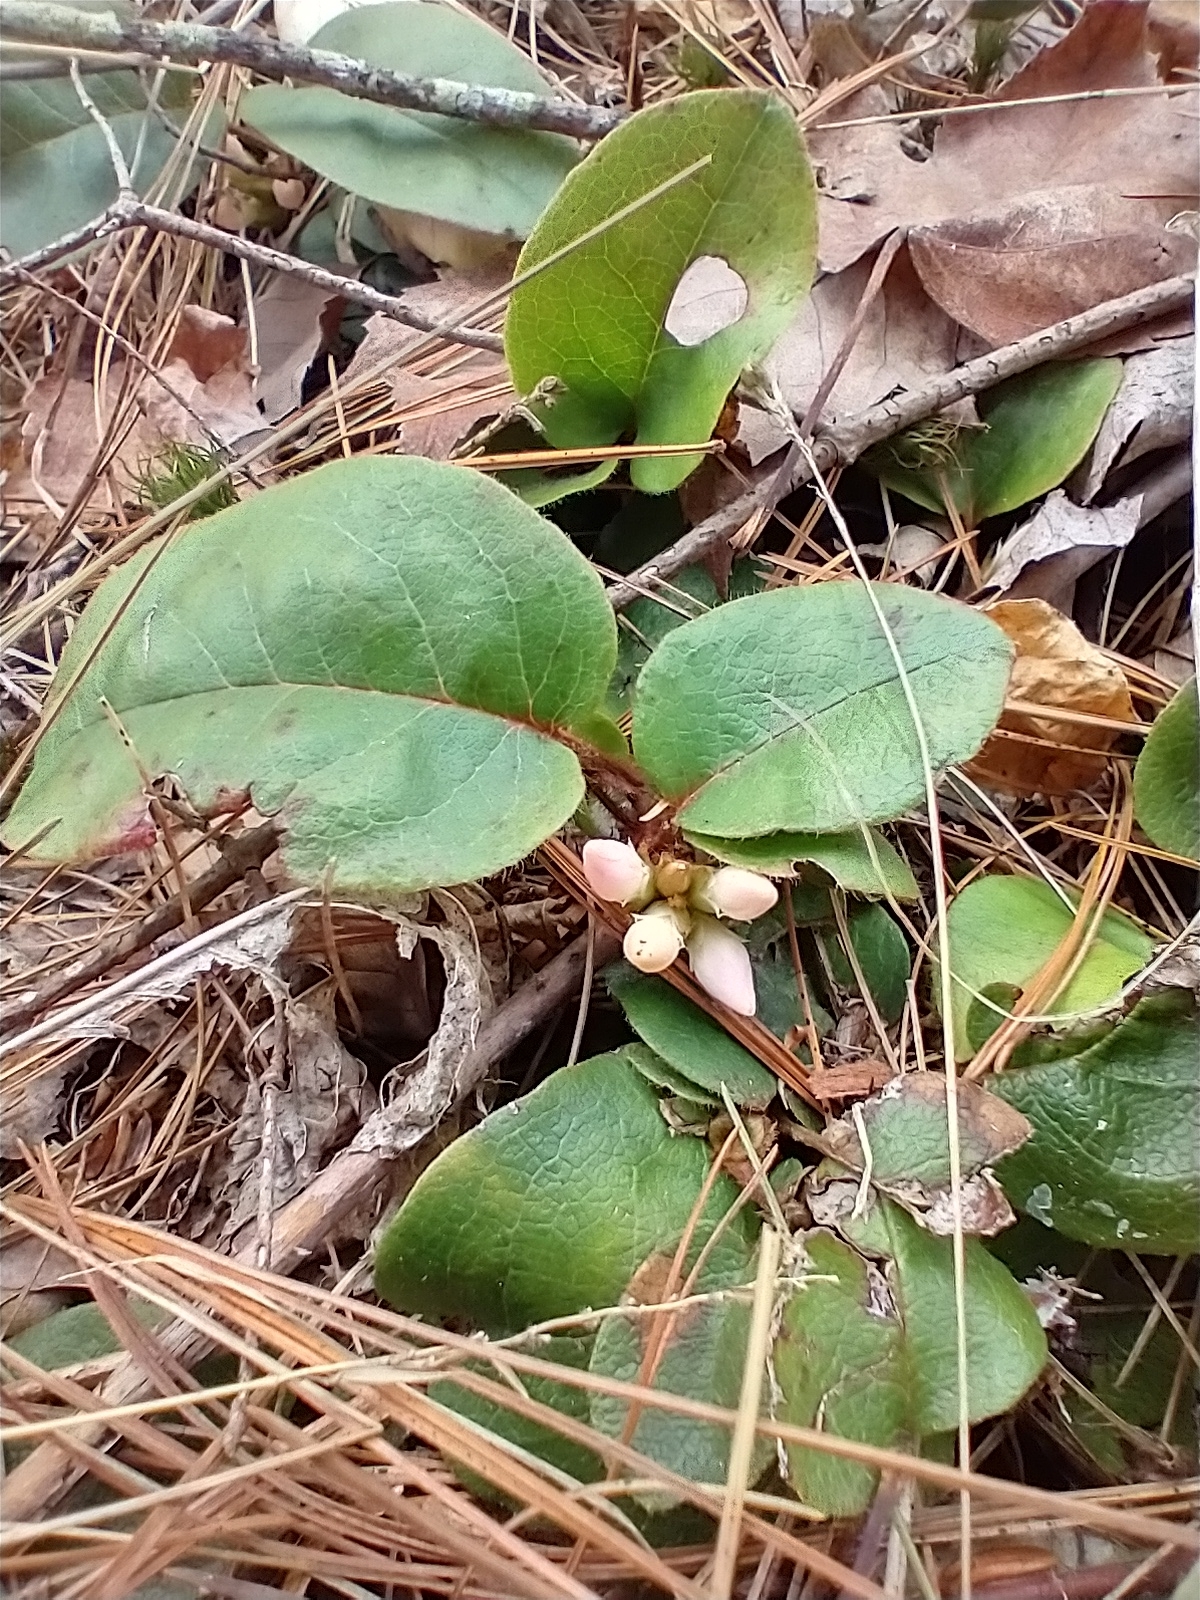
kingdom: Plantae
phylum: Tracheophyta
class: Magnoliopsida
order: Ericales
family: Ericaceae
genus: Epigaea
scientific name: Epigaea repens
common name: Gravelroot
